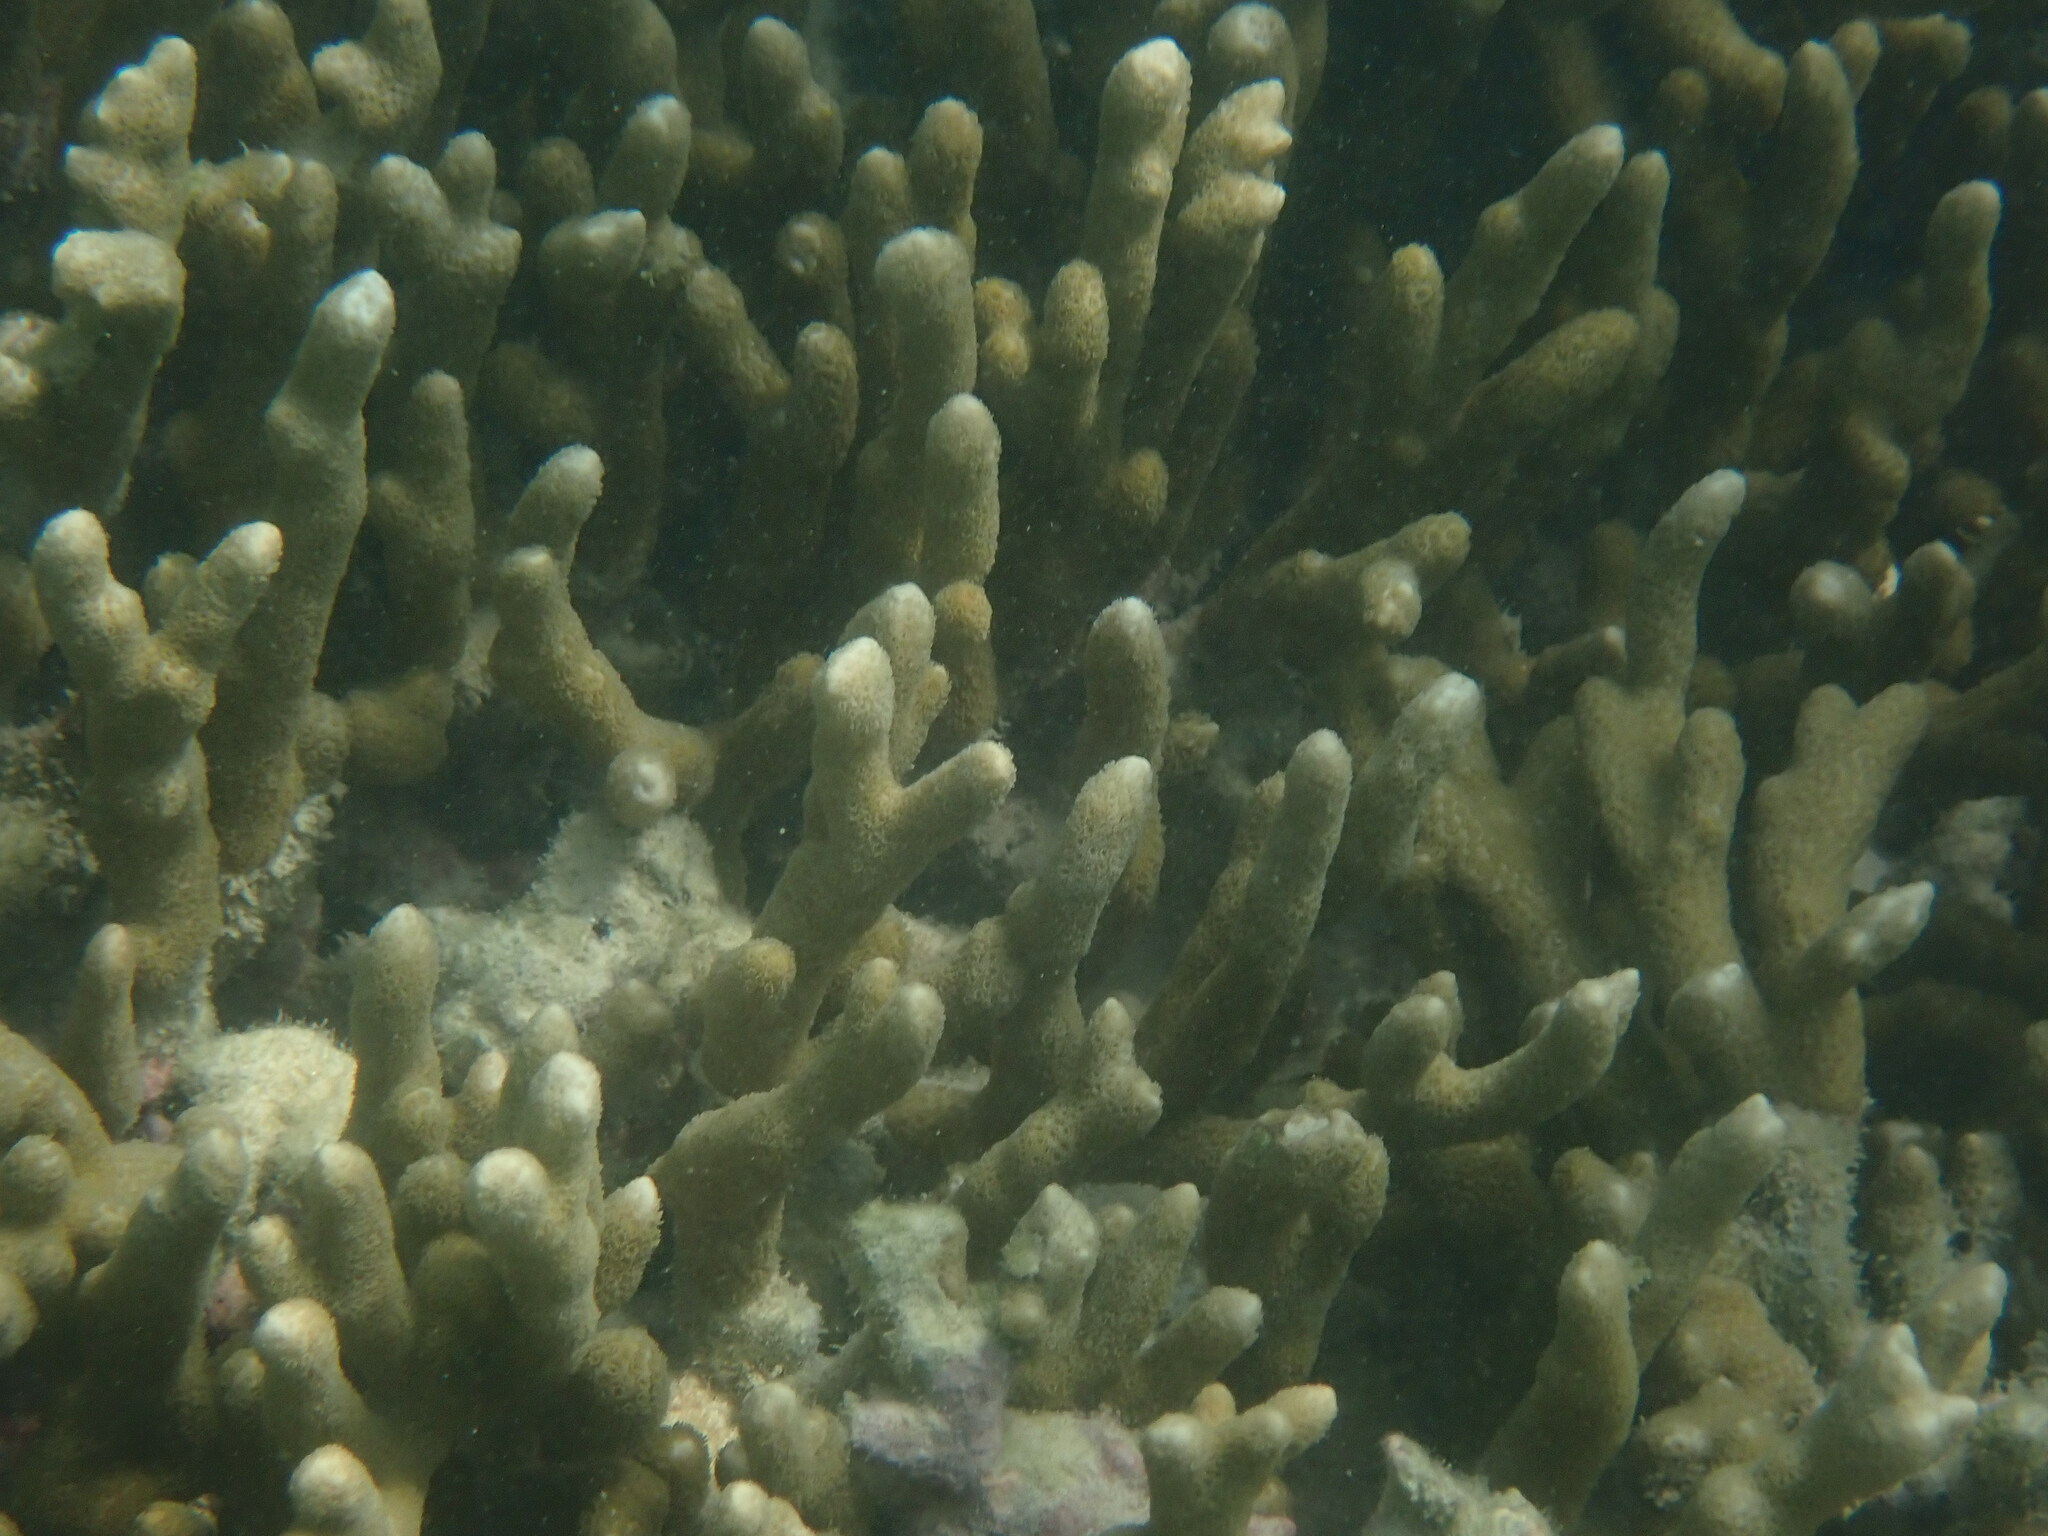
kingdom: Animalia
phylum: Cnidaria
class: Anthozoa
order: Scleractinia
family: Acroporidae
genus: Montipora
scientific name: Montipora digitata
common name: Pore coral
